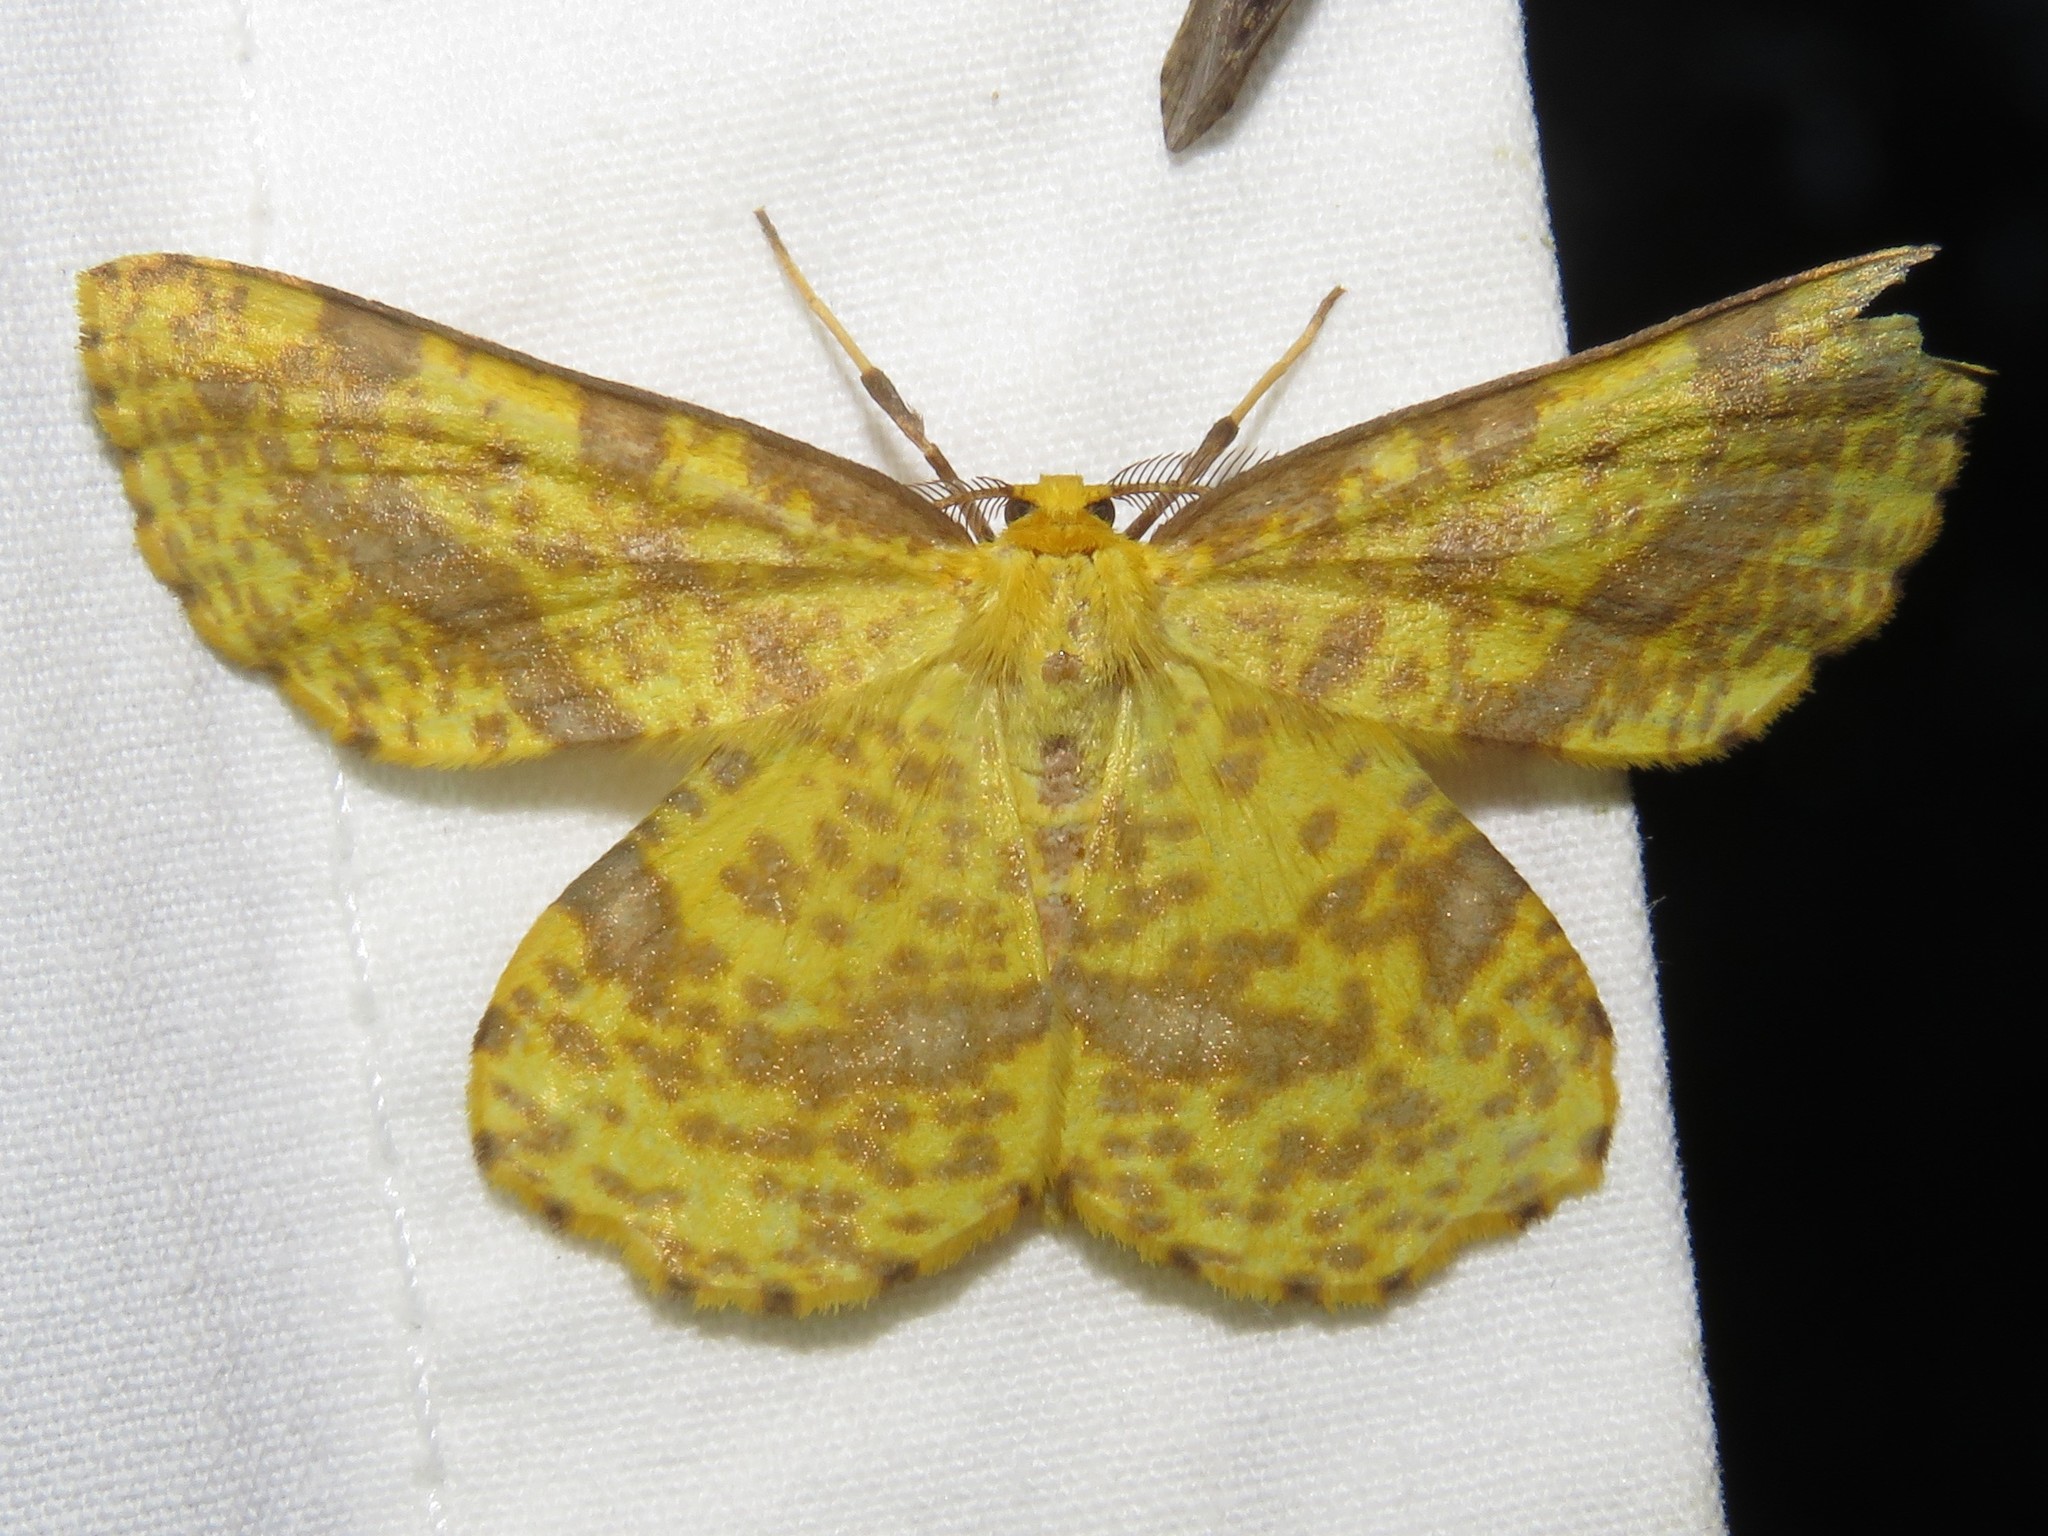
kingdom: Animalia
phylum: Arthropoda
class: Insecta
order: Lepidoptera
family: Geometridae
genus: Xanthotype
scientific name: Xanthotype
